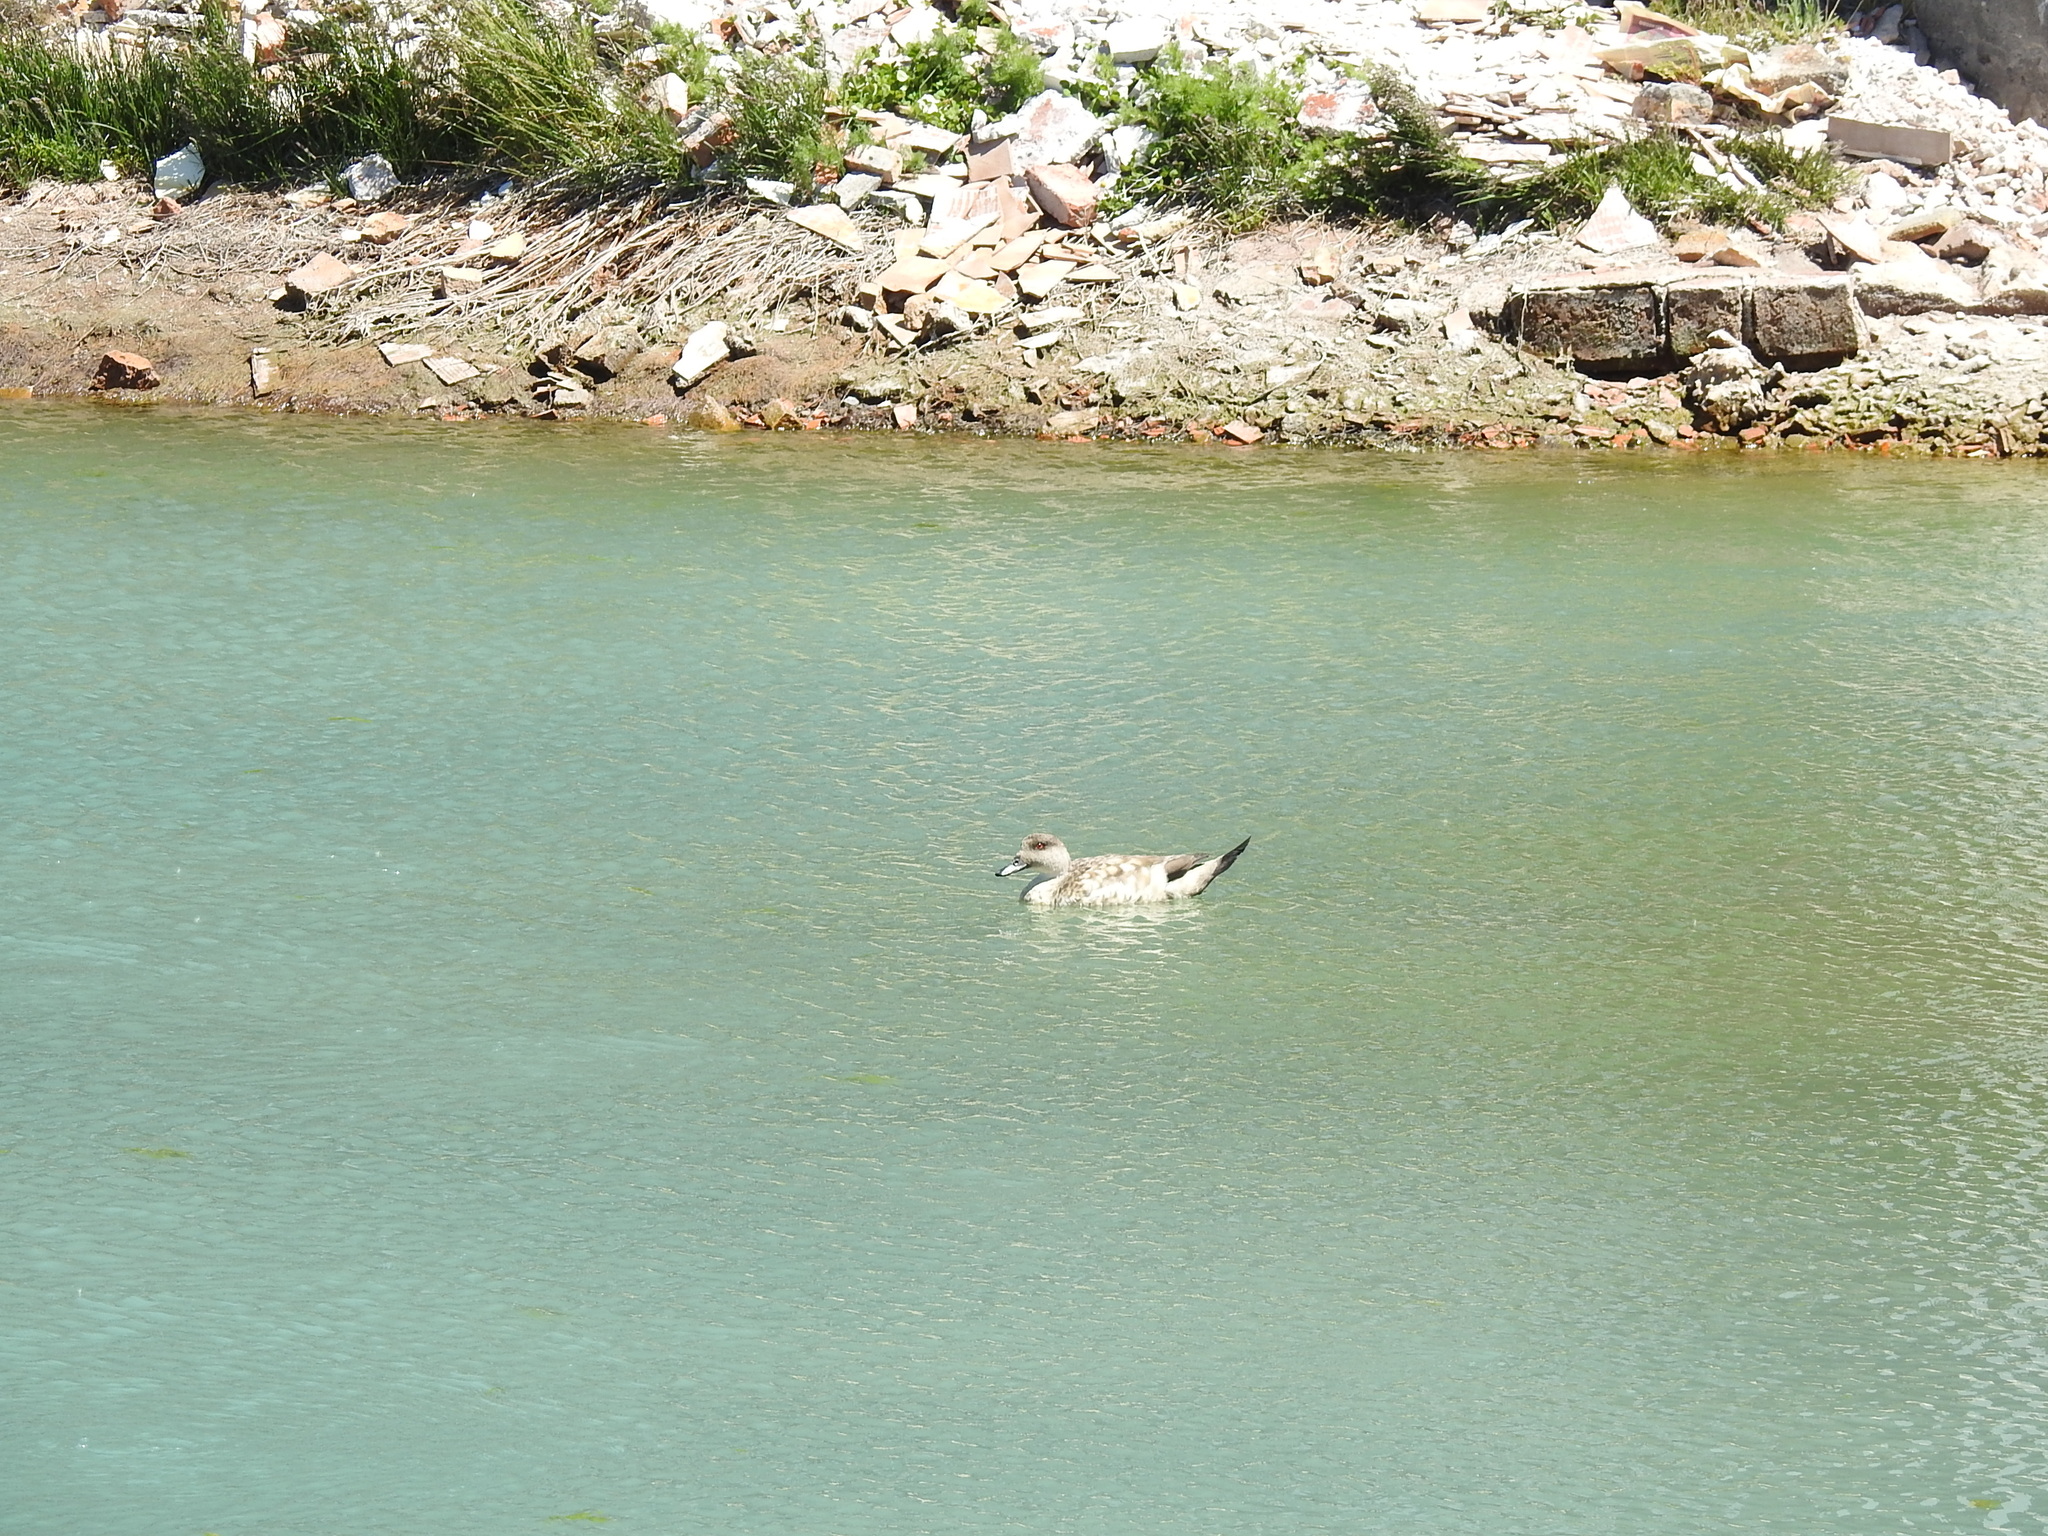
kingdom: Animalia
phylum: Chordata
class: Aves
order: Anseriformes
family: Anatidae
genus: Lophonetta
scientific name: Lophonetta specularioides
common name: Crested duck
